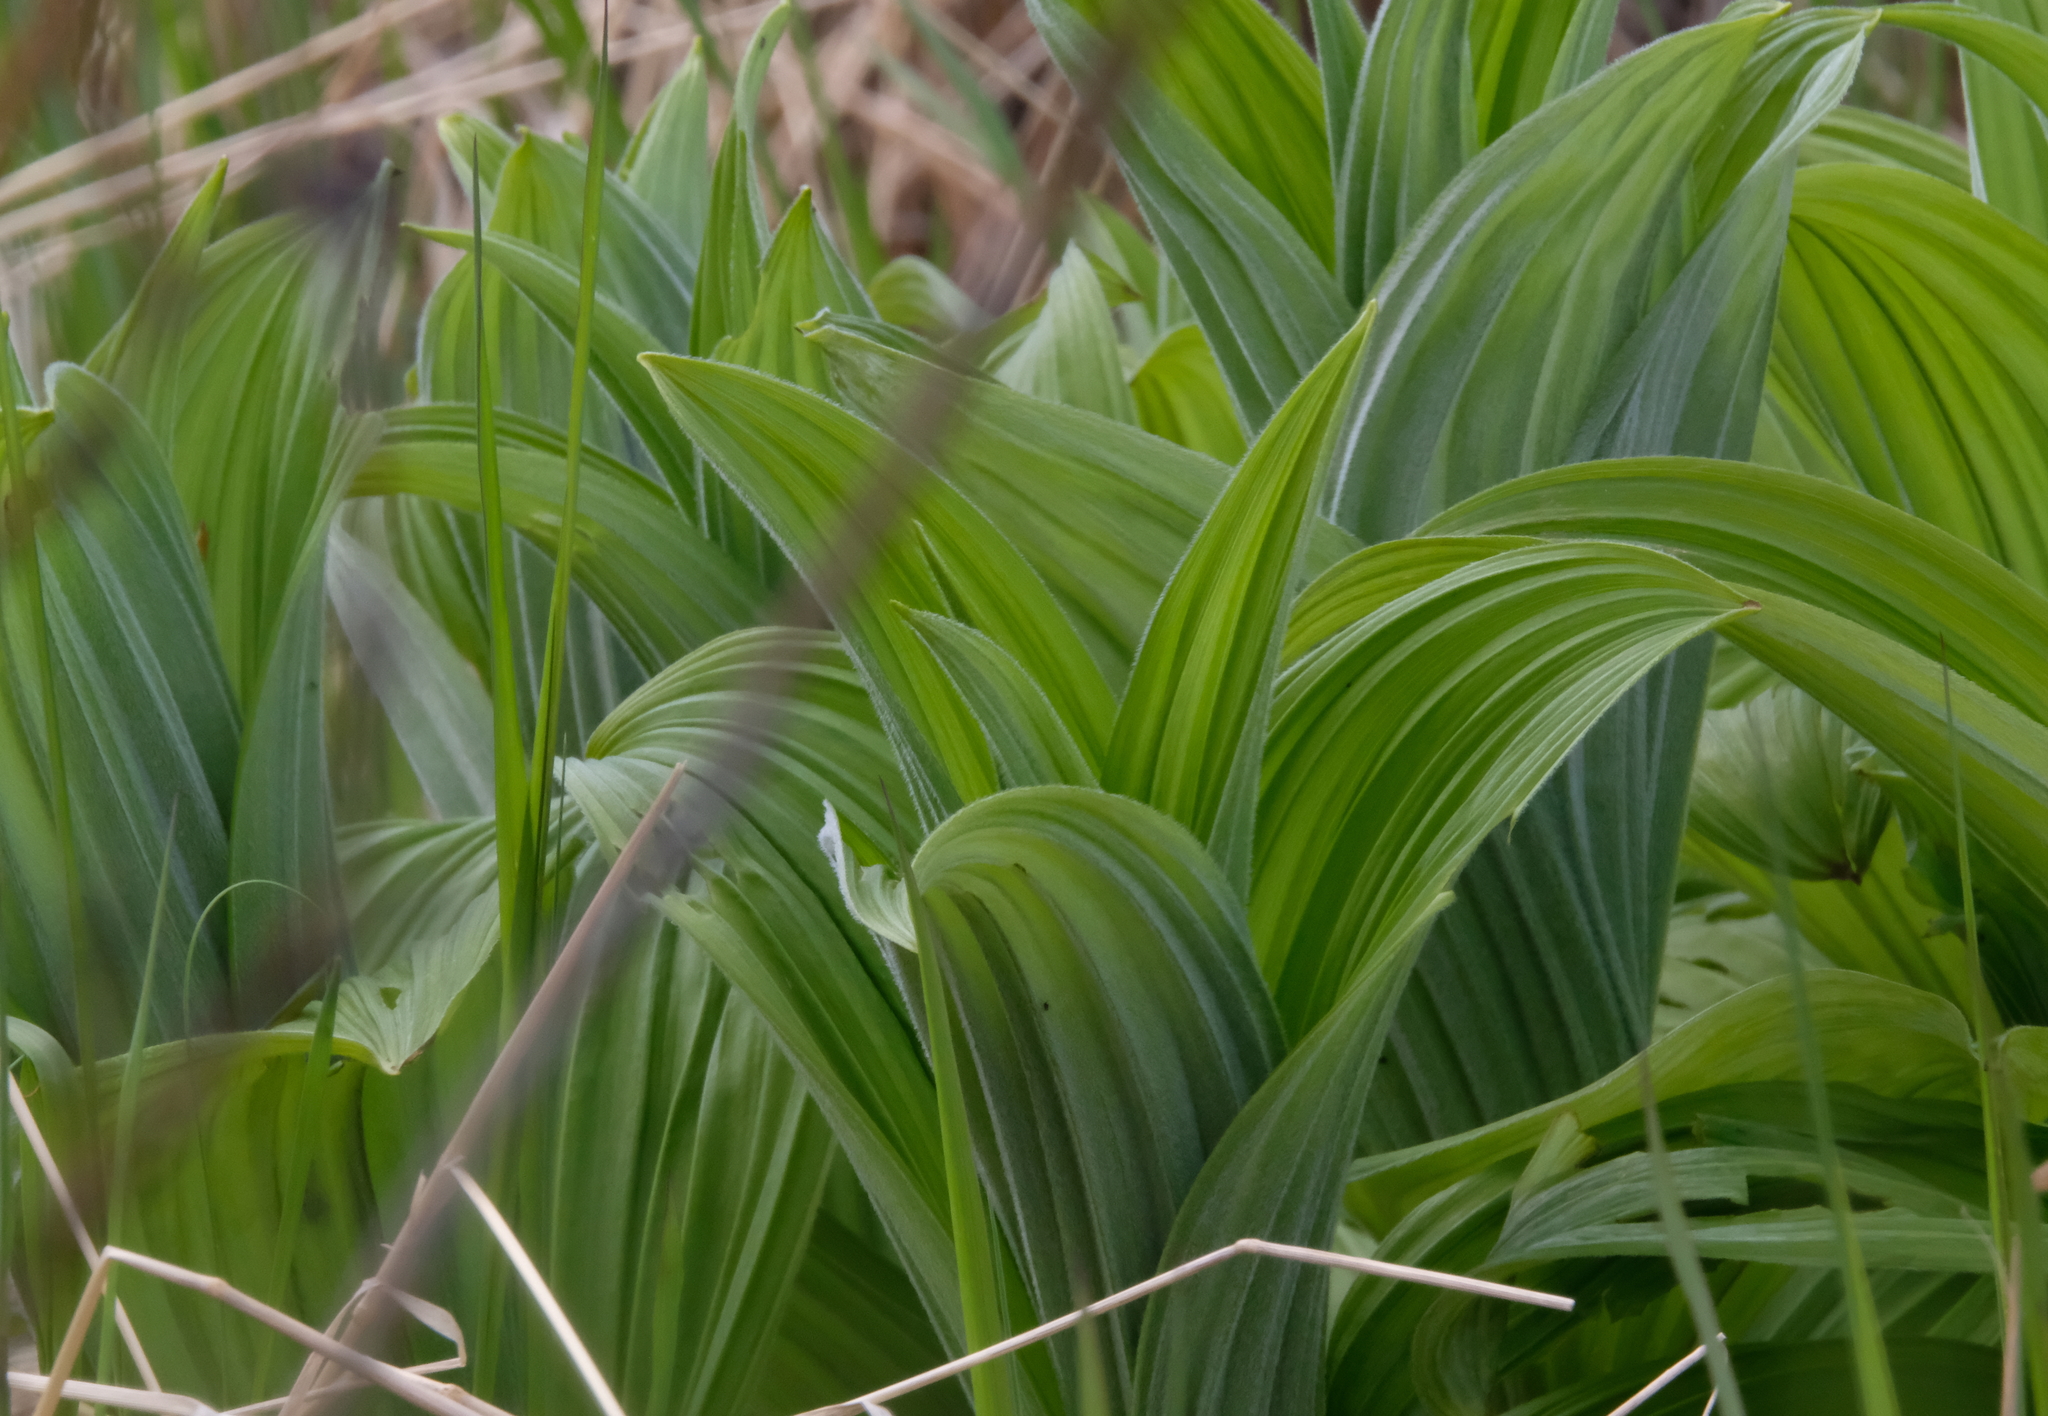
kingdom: Plantae
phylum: Tracheophyta
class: Liliopsida
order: Liliales
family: Melanthiaceae
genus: Veratrum
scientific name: Veratrum viride
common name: American false hellebore
